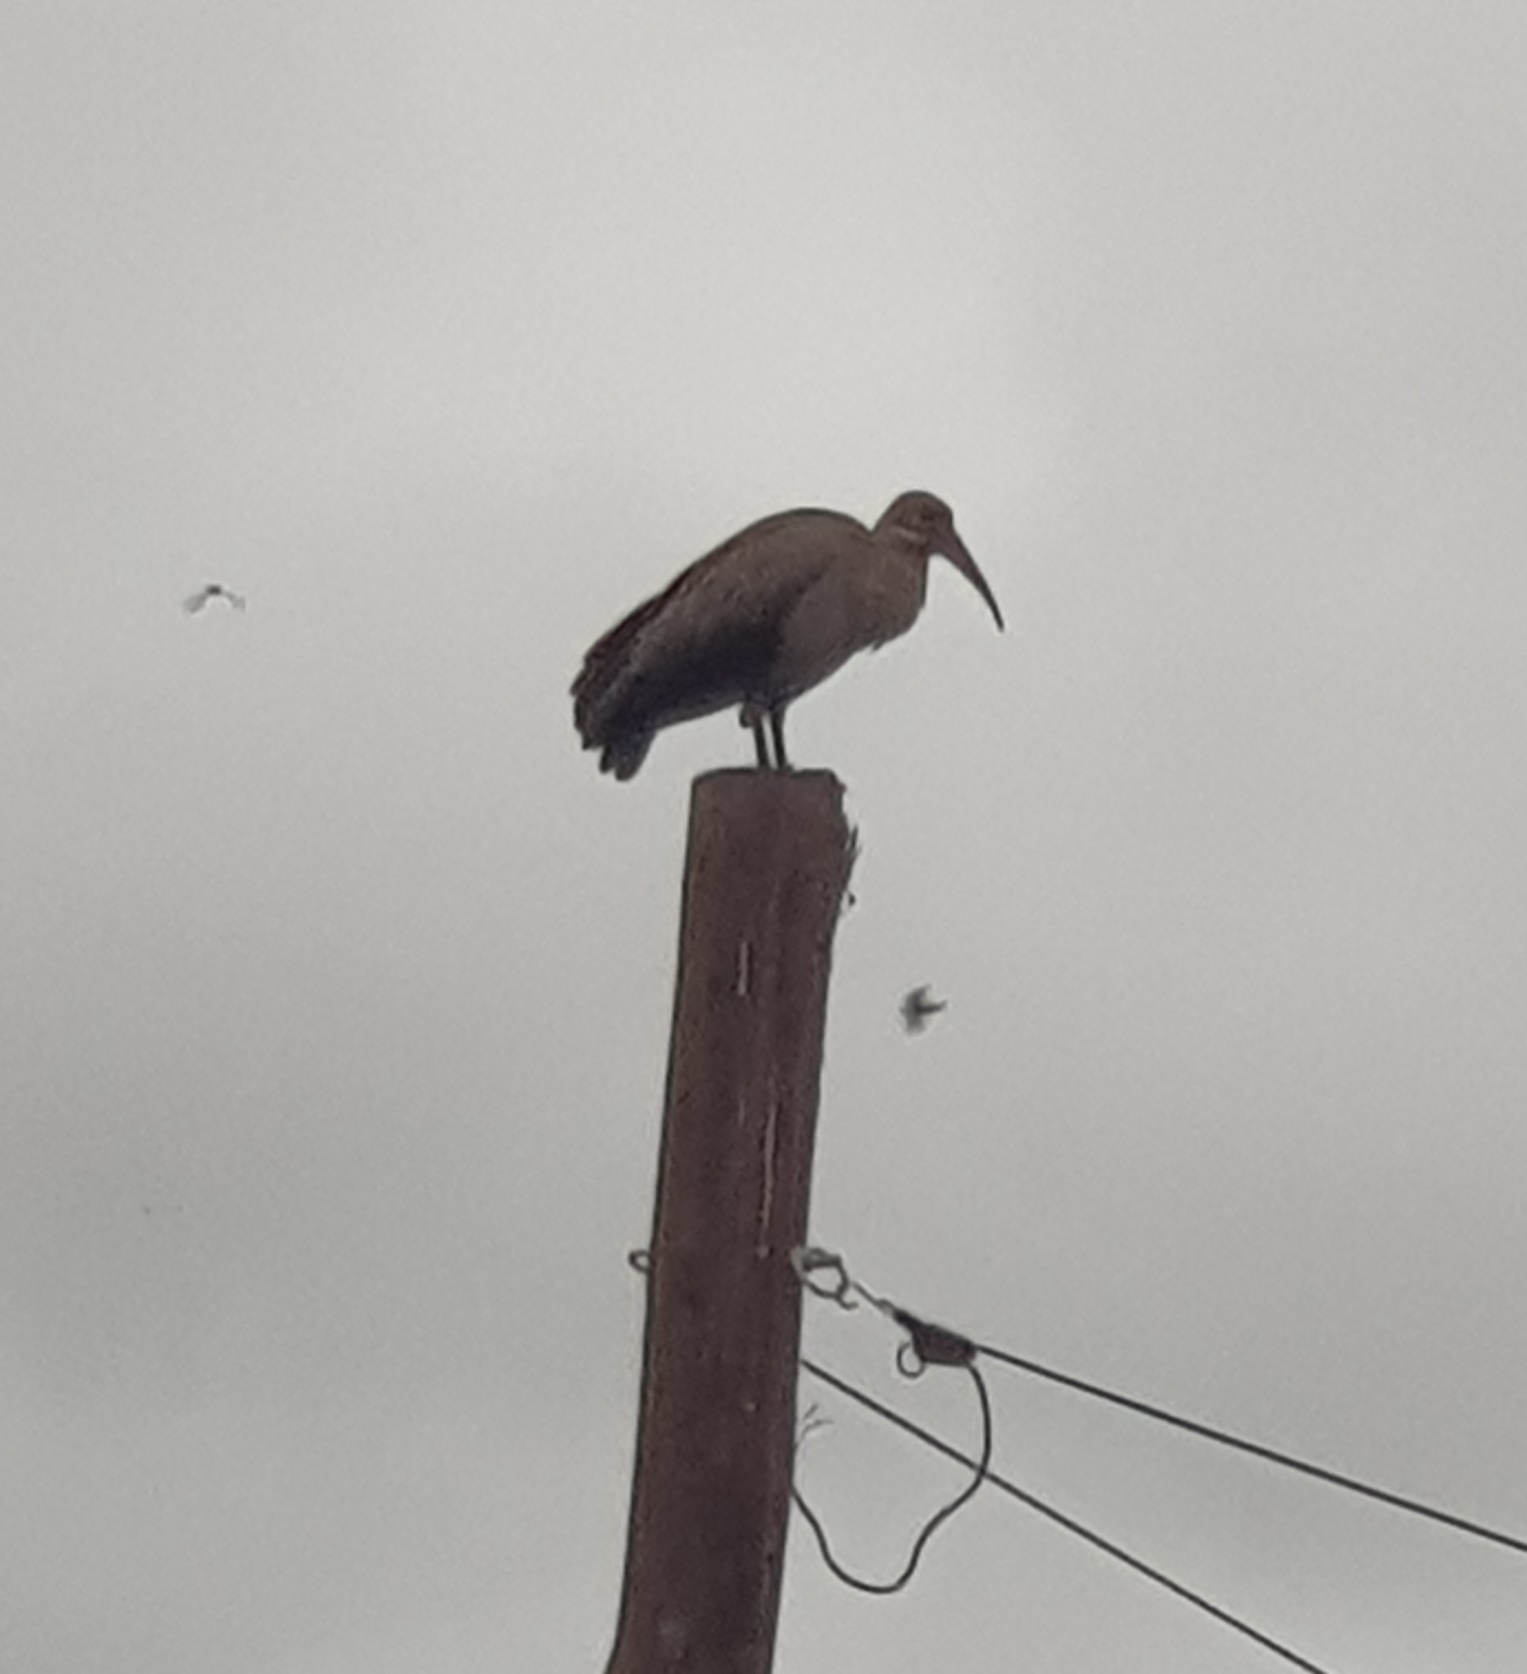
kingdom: Animalia
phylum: Chordata
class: Aves
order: Pelecaniformes
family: Threskiornithidae
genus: Bostrychia
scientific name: Bostrychia hagedash
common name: Hadada ibis
